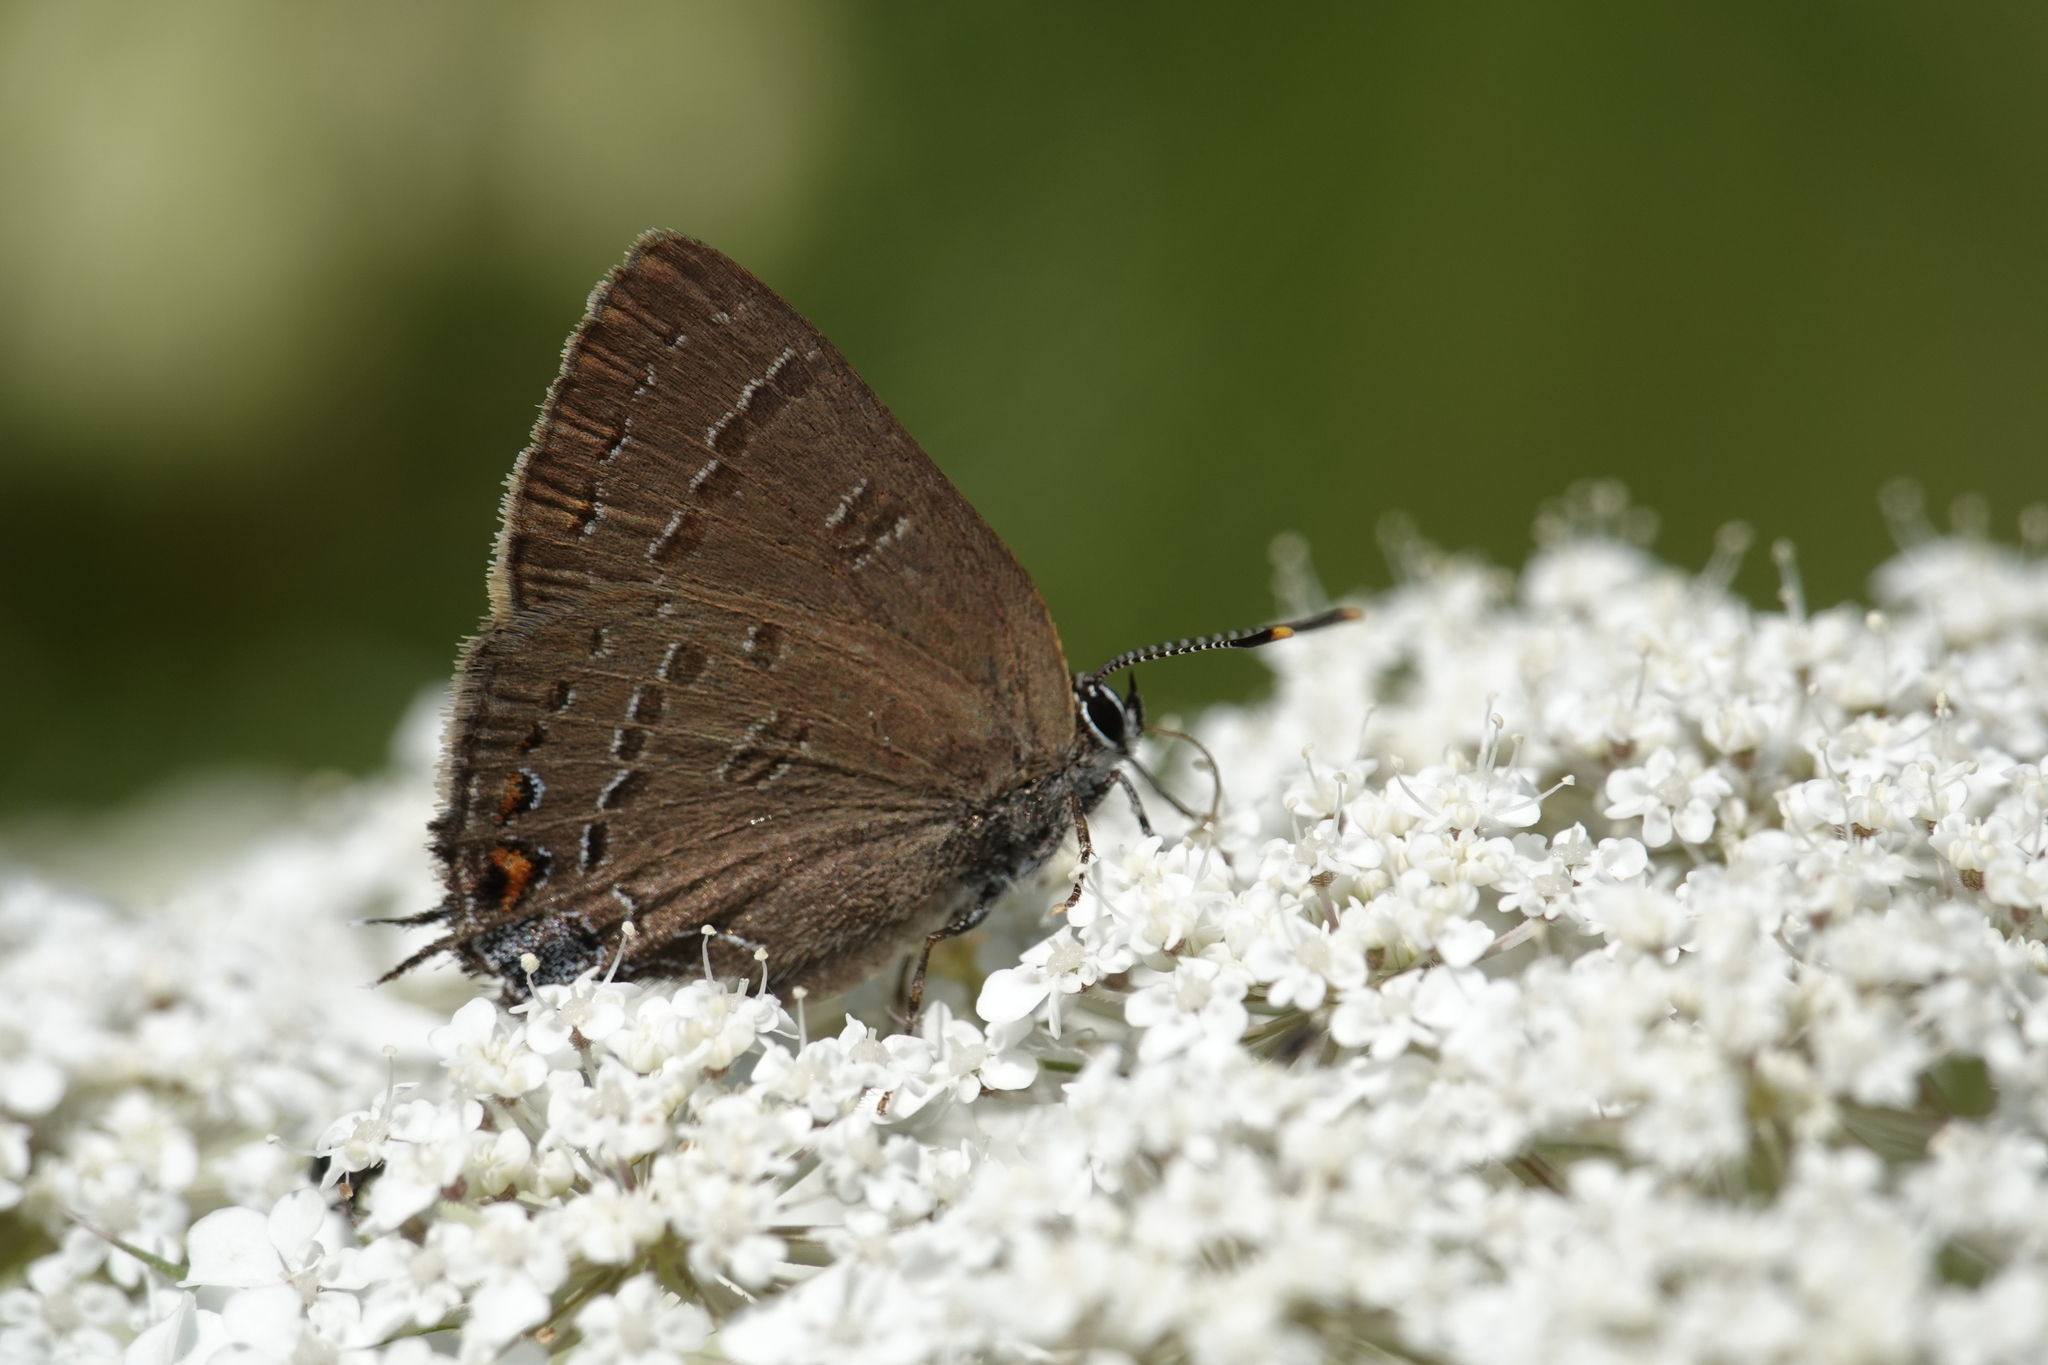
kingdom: Animalia
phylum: Arthropoda
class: Insecta
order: Lepidoptera
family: Lycaenidae
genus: Satyrium
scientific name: Satyrium calanus
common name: Banded hairstreak
